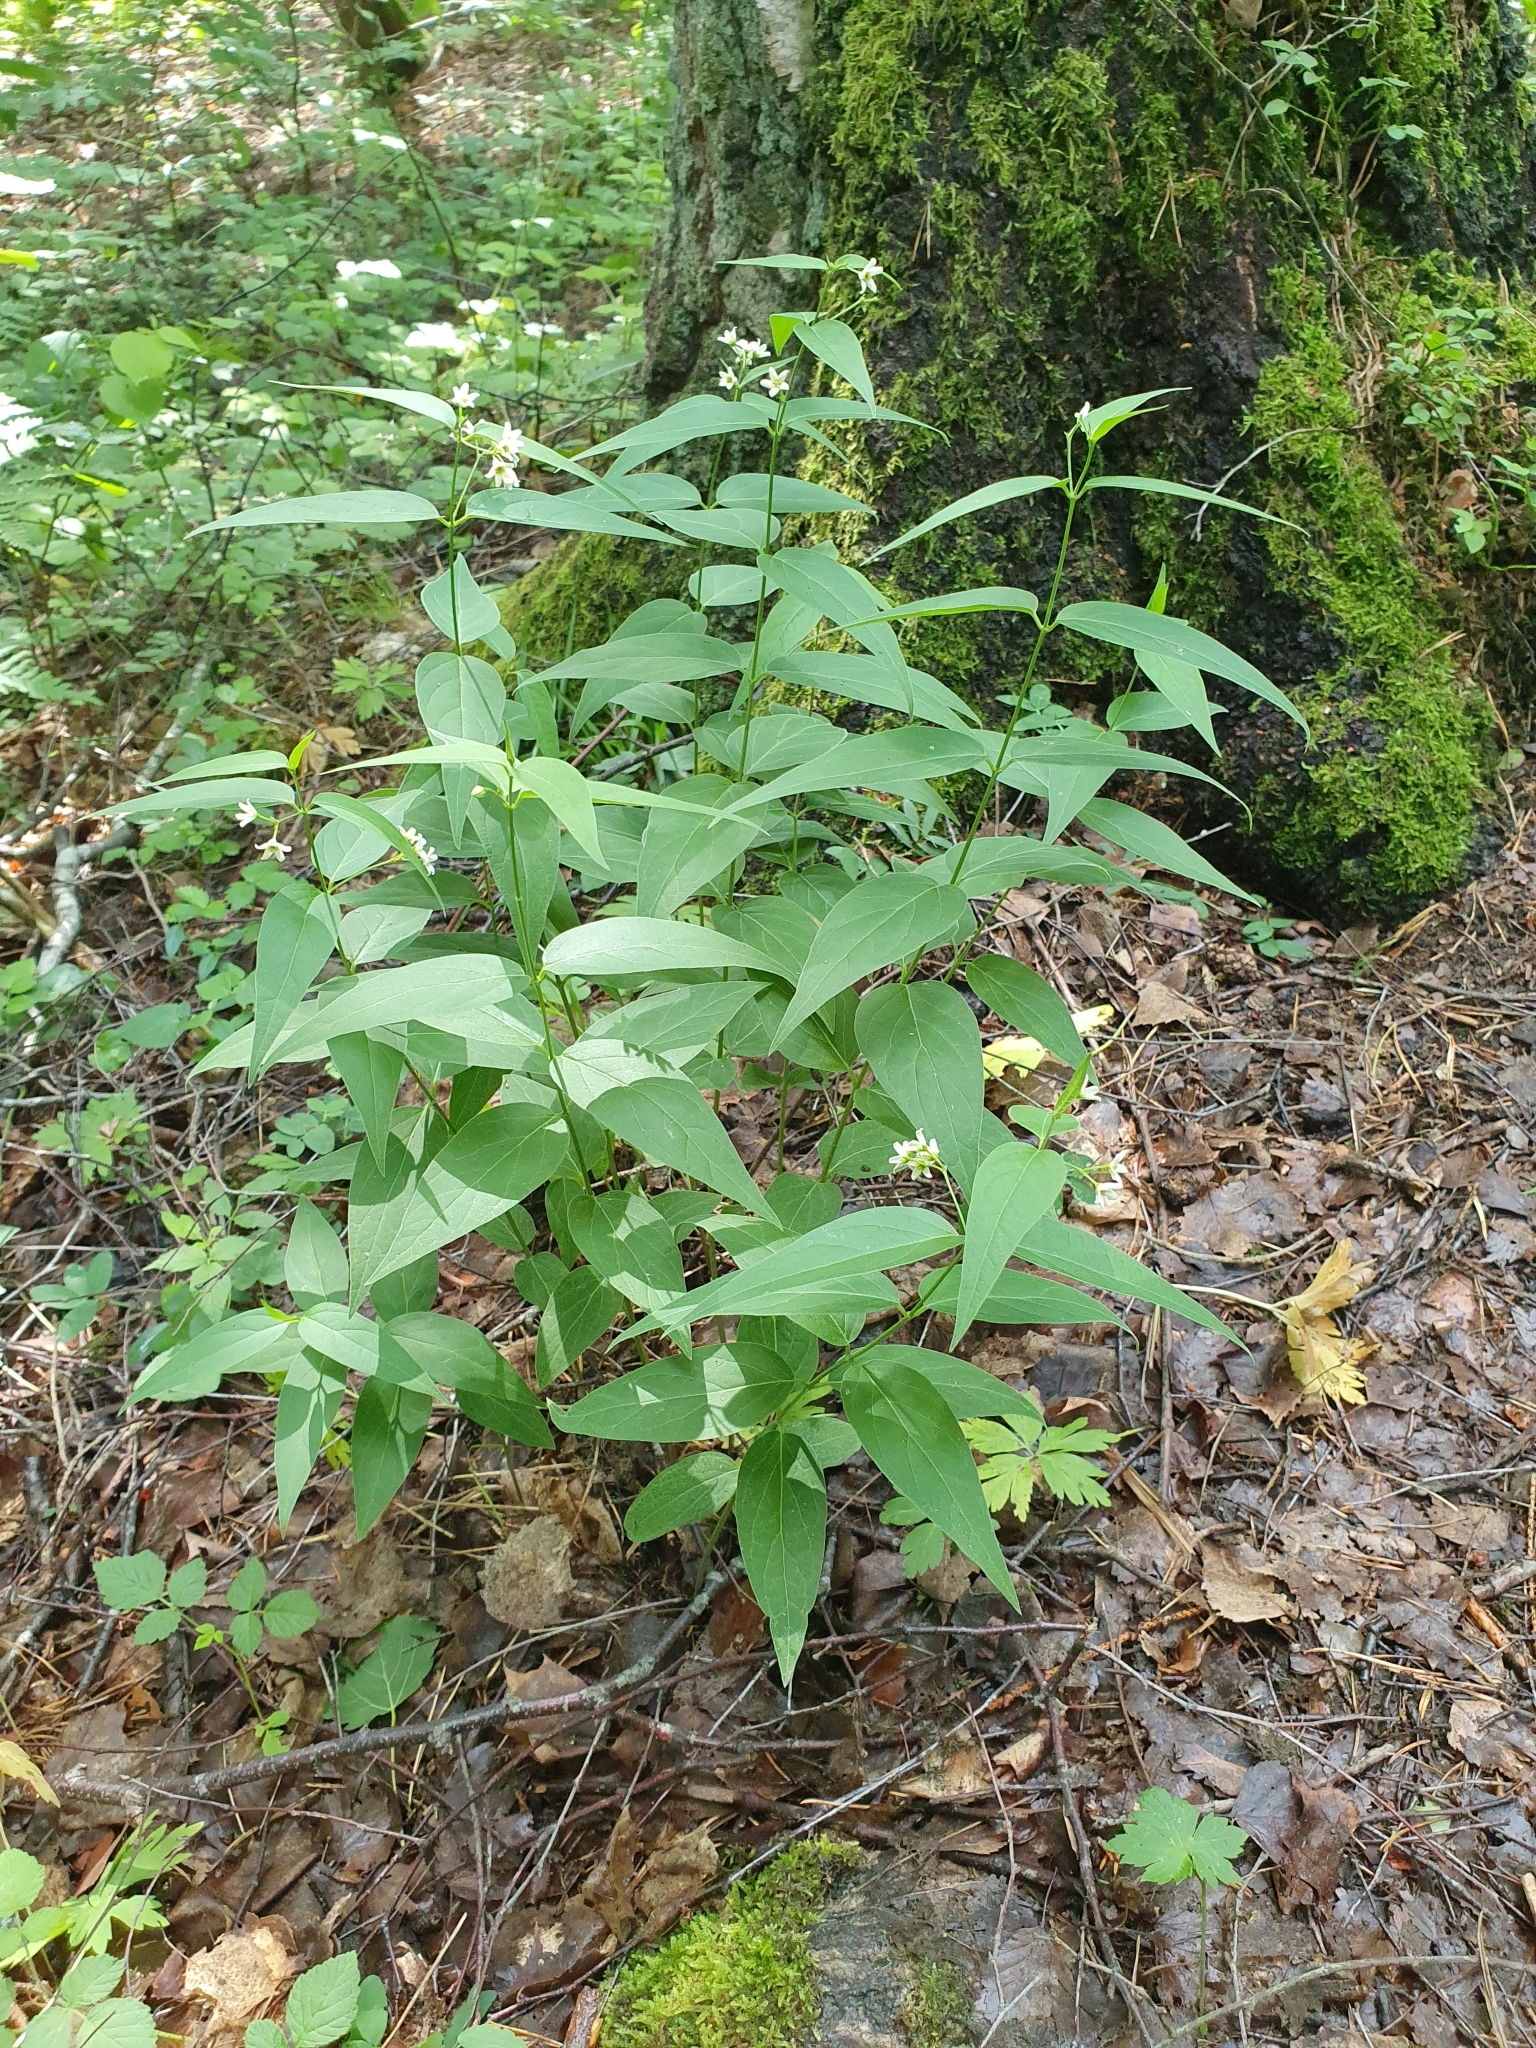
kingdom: Plantae
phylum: Tracheophyta
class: Magnoliopsida
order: Gentianales
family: Apocynaceae
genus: Vincetoxicum
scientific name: Vincetoxicum hirundinaria
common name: White swallowwort
